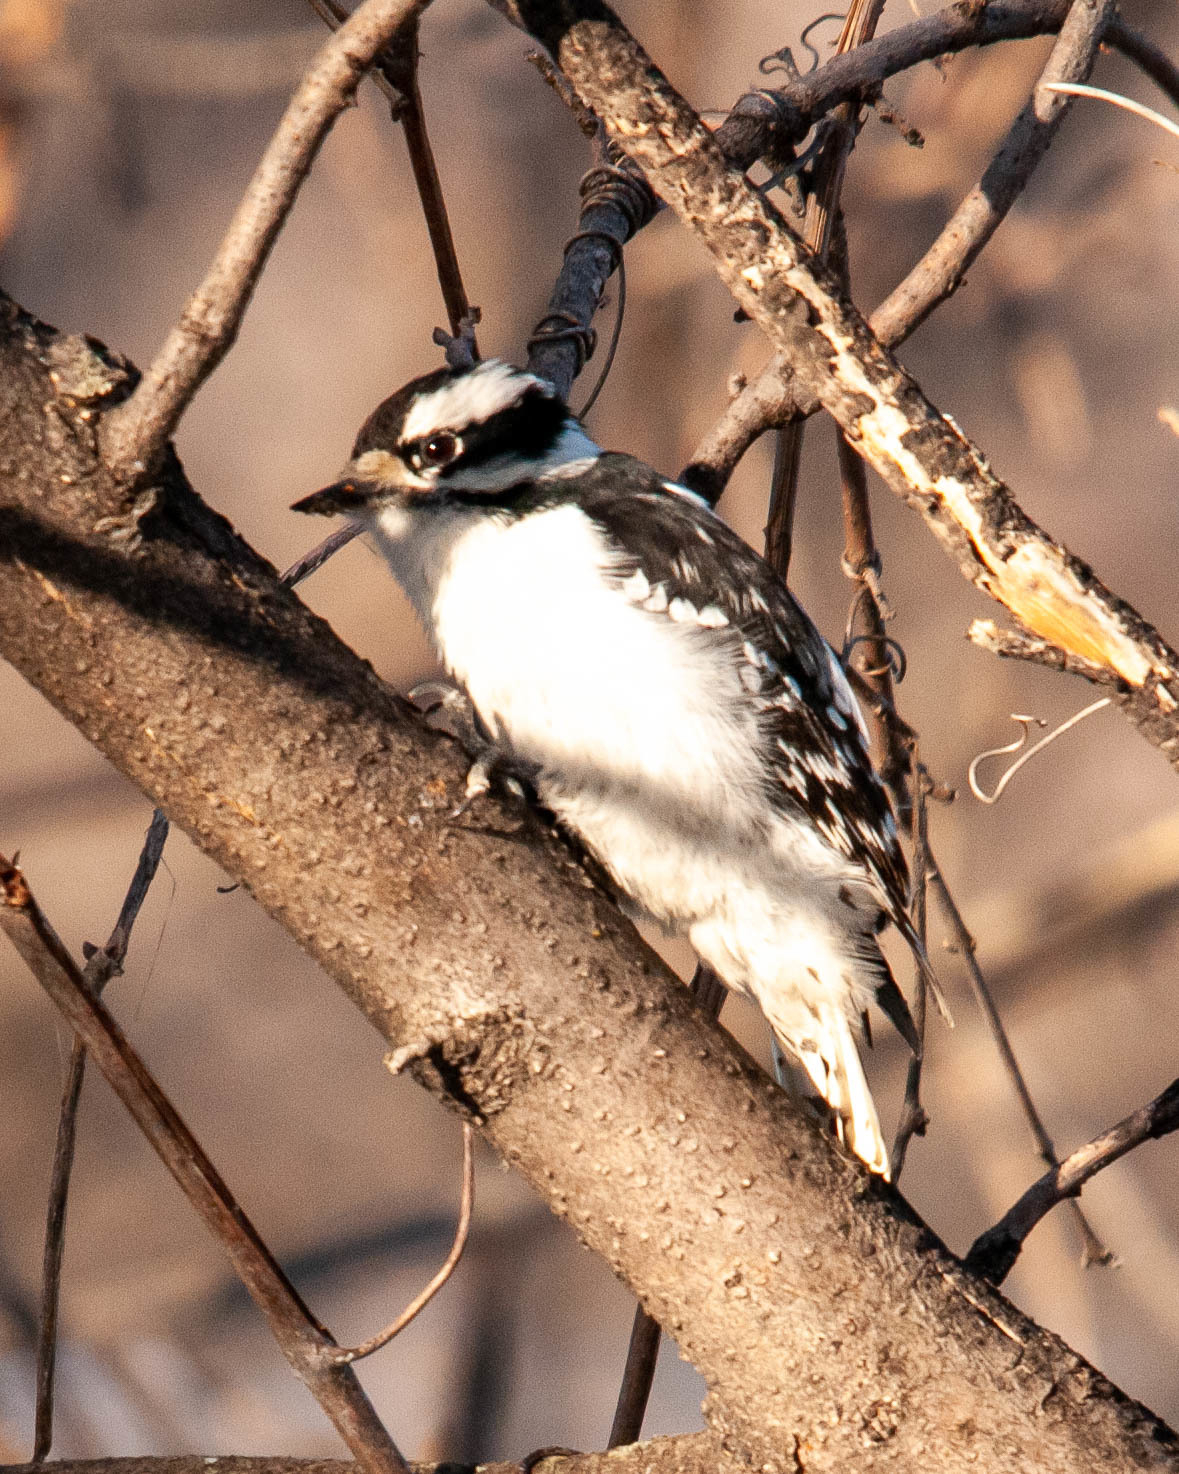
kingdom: Animalia
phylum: Chordata
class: Aves
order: Piciformes
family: Picidae
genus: Dryobates
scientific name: Dryobates pubescens
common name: Downy woodpecker
